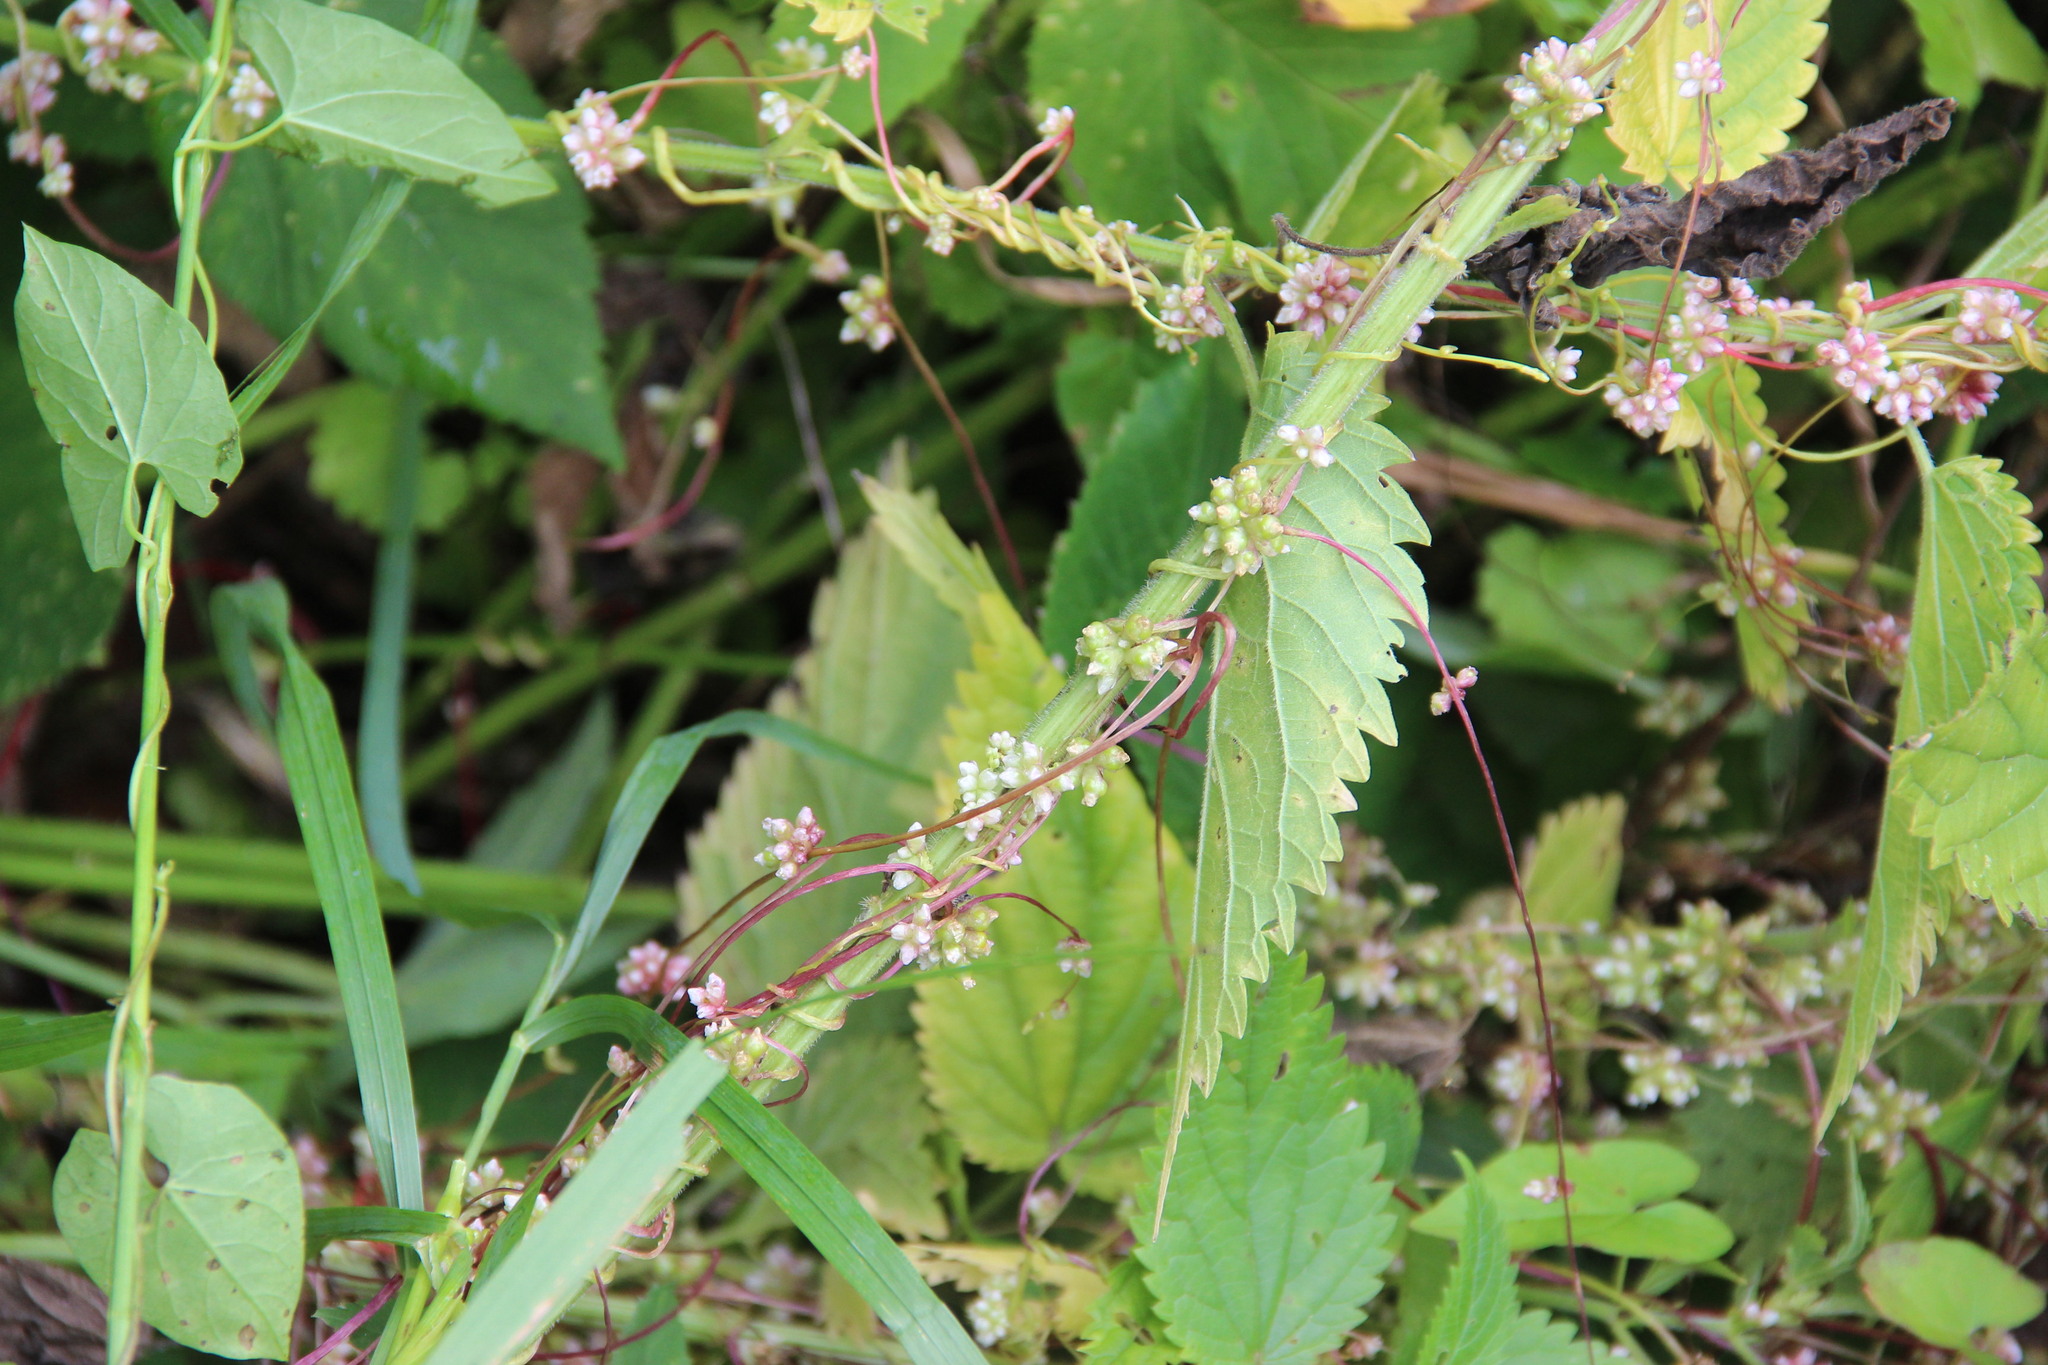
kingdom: Plantae
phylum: Tracheophyta
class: Magnoliopsida
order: Solanales
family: Convolvulaceae
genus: Cuscuta
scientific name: Cuscuta europaea
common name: Greater dodder
